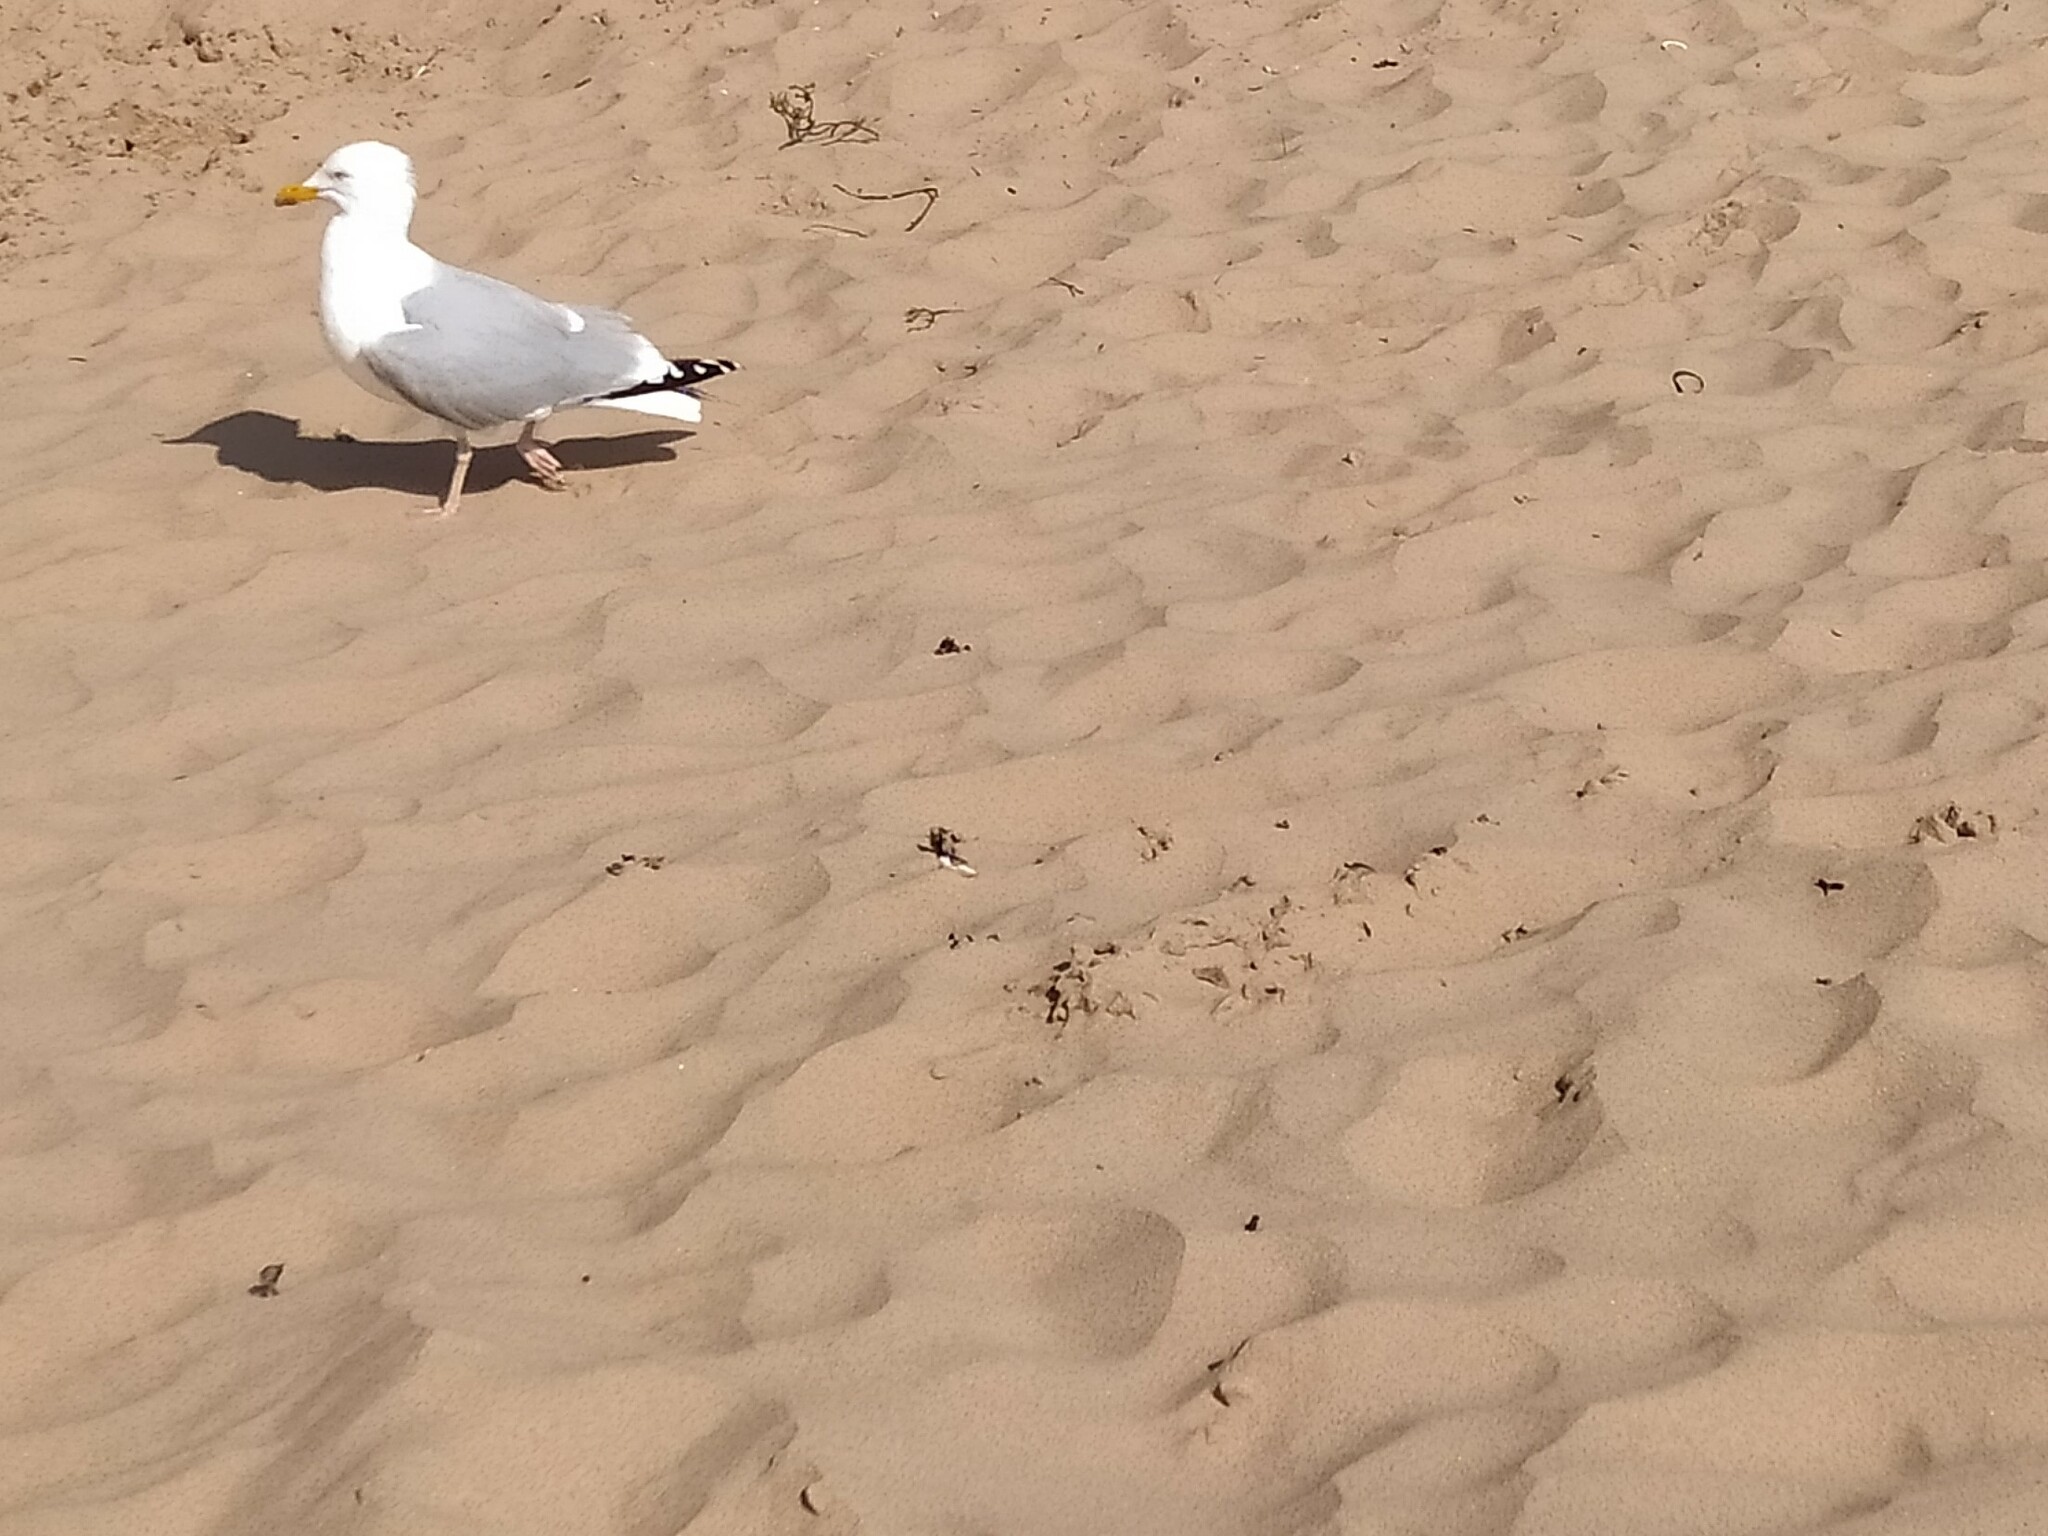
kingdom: Animalia
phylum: Chordata
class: Aves
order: Charadriiformes
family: Laridae
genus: Larus
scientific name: Larus argentatus
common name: Herring gull
